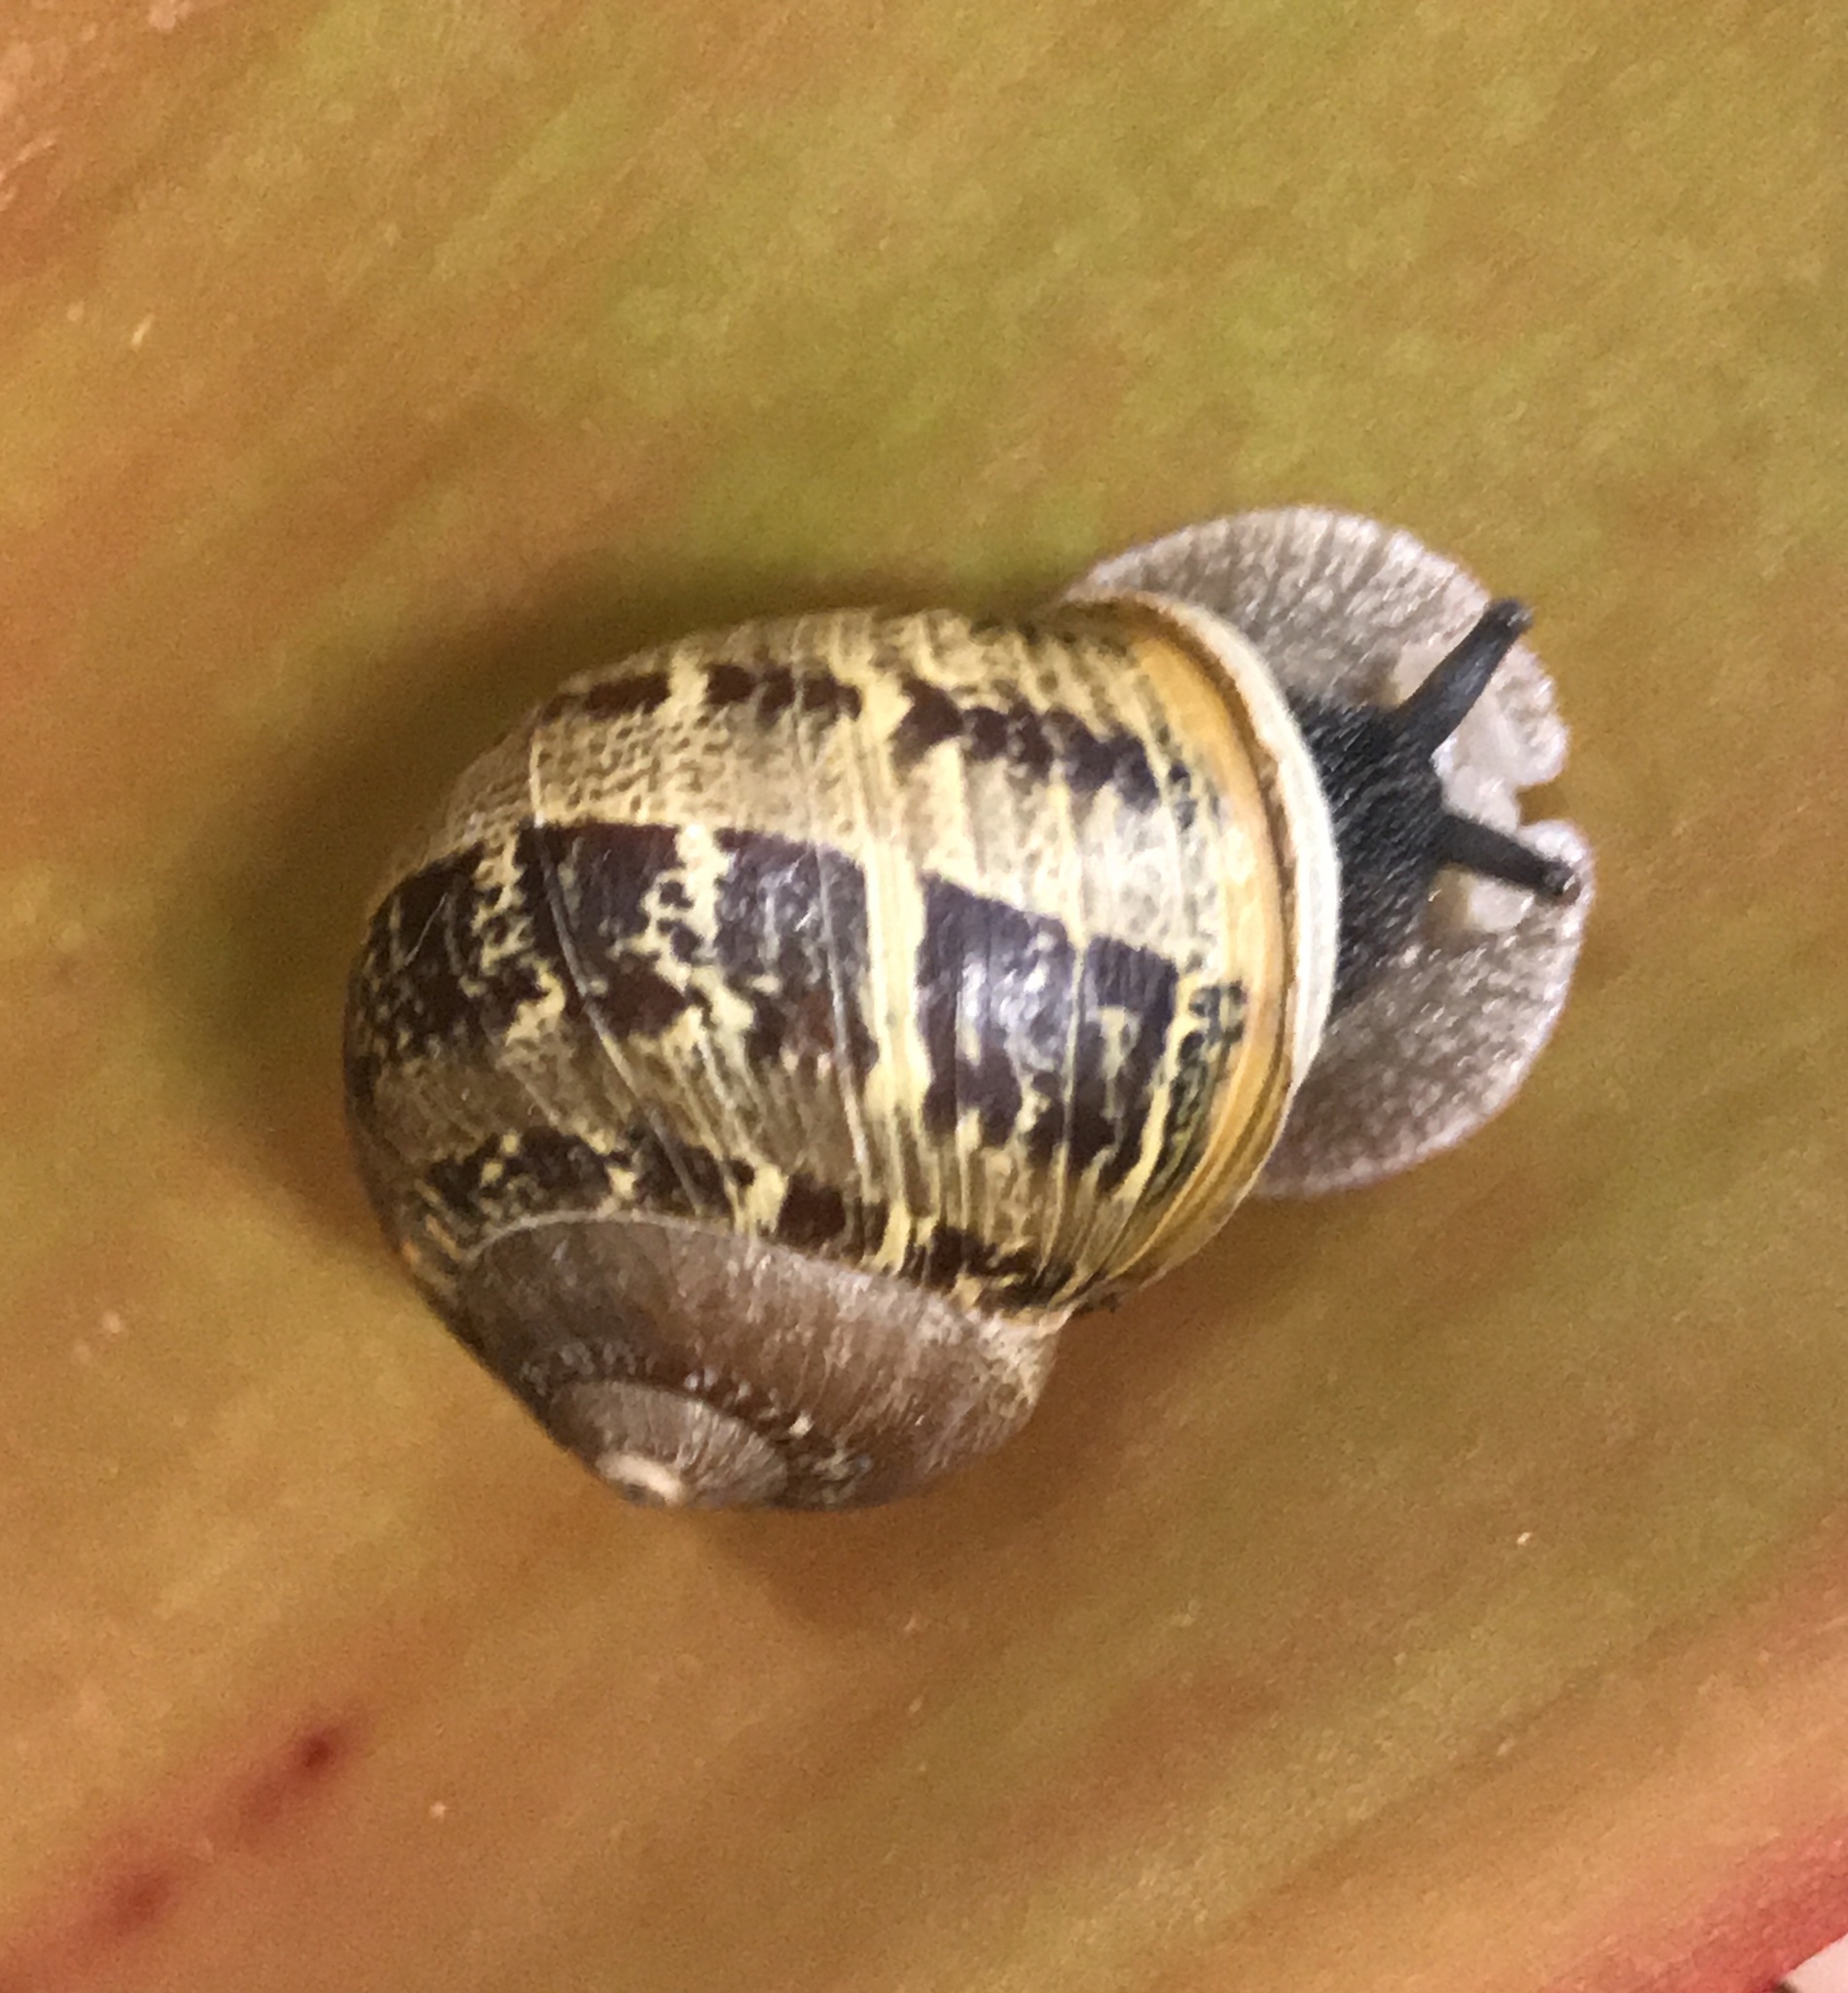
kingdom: Animalia
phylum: Mollusca
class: Gastropoda
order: Stylommatophora
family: Helicidae
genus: Cornu
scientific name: Cornu aspersum
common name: Brown garden snail
